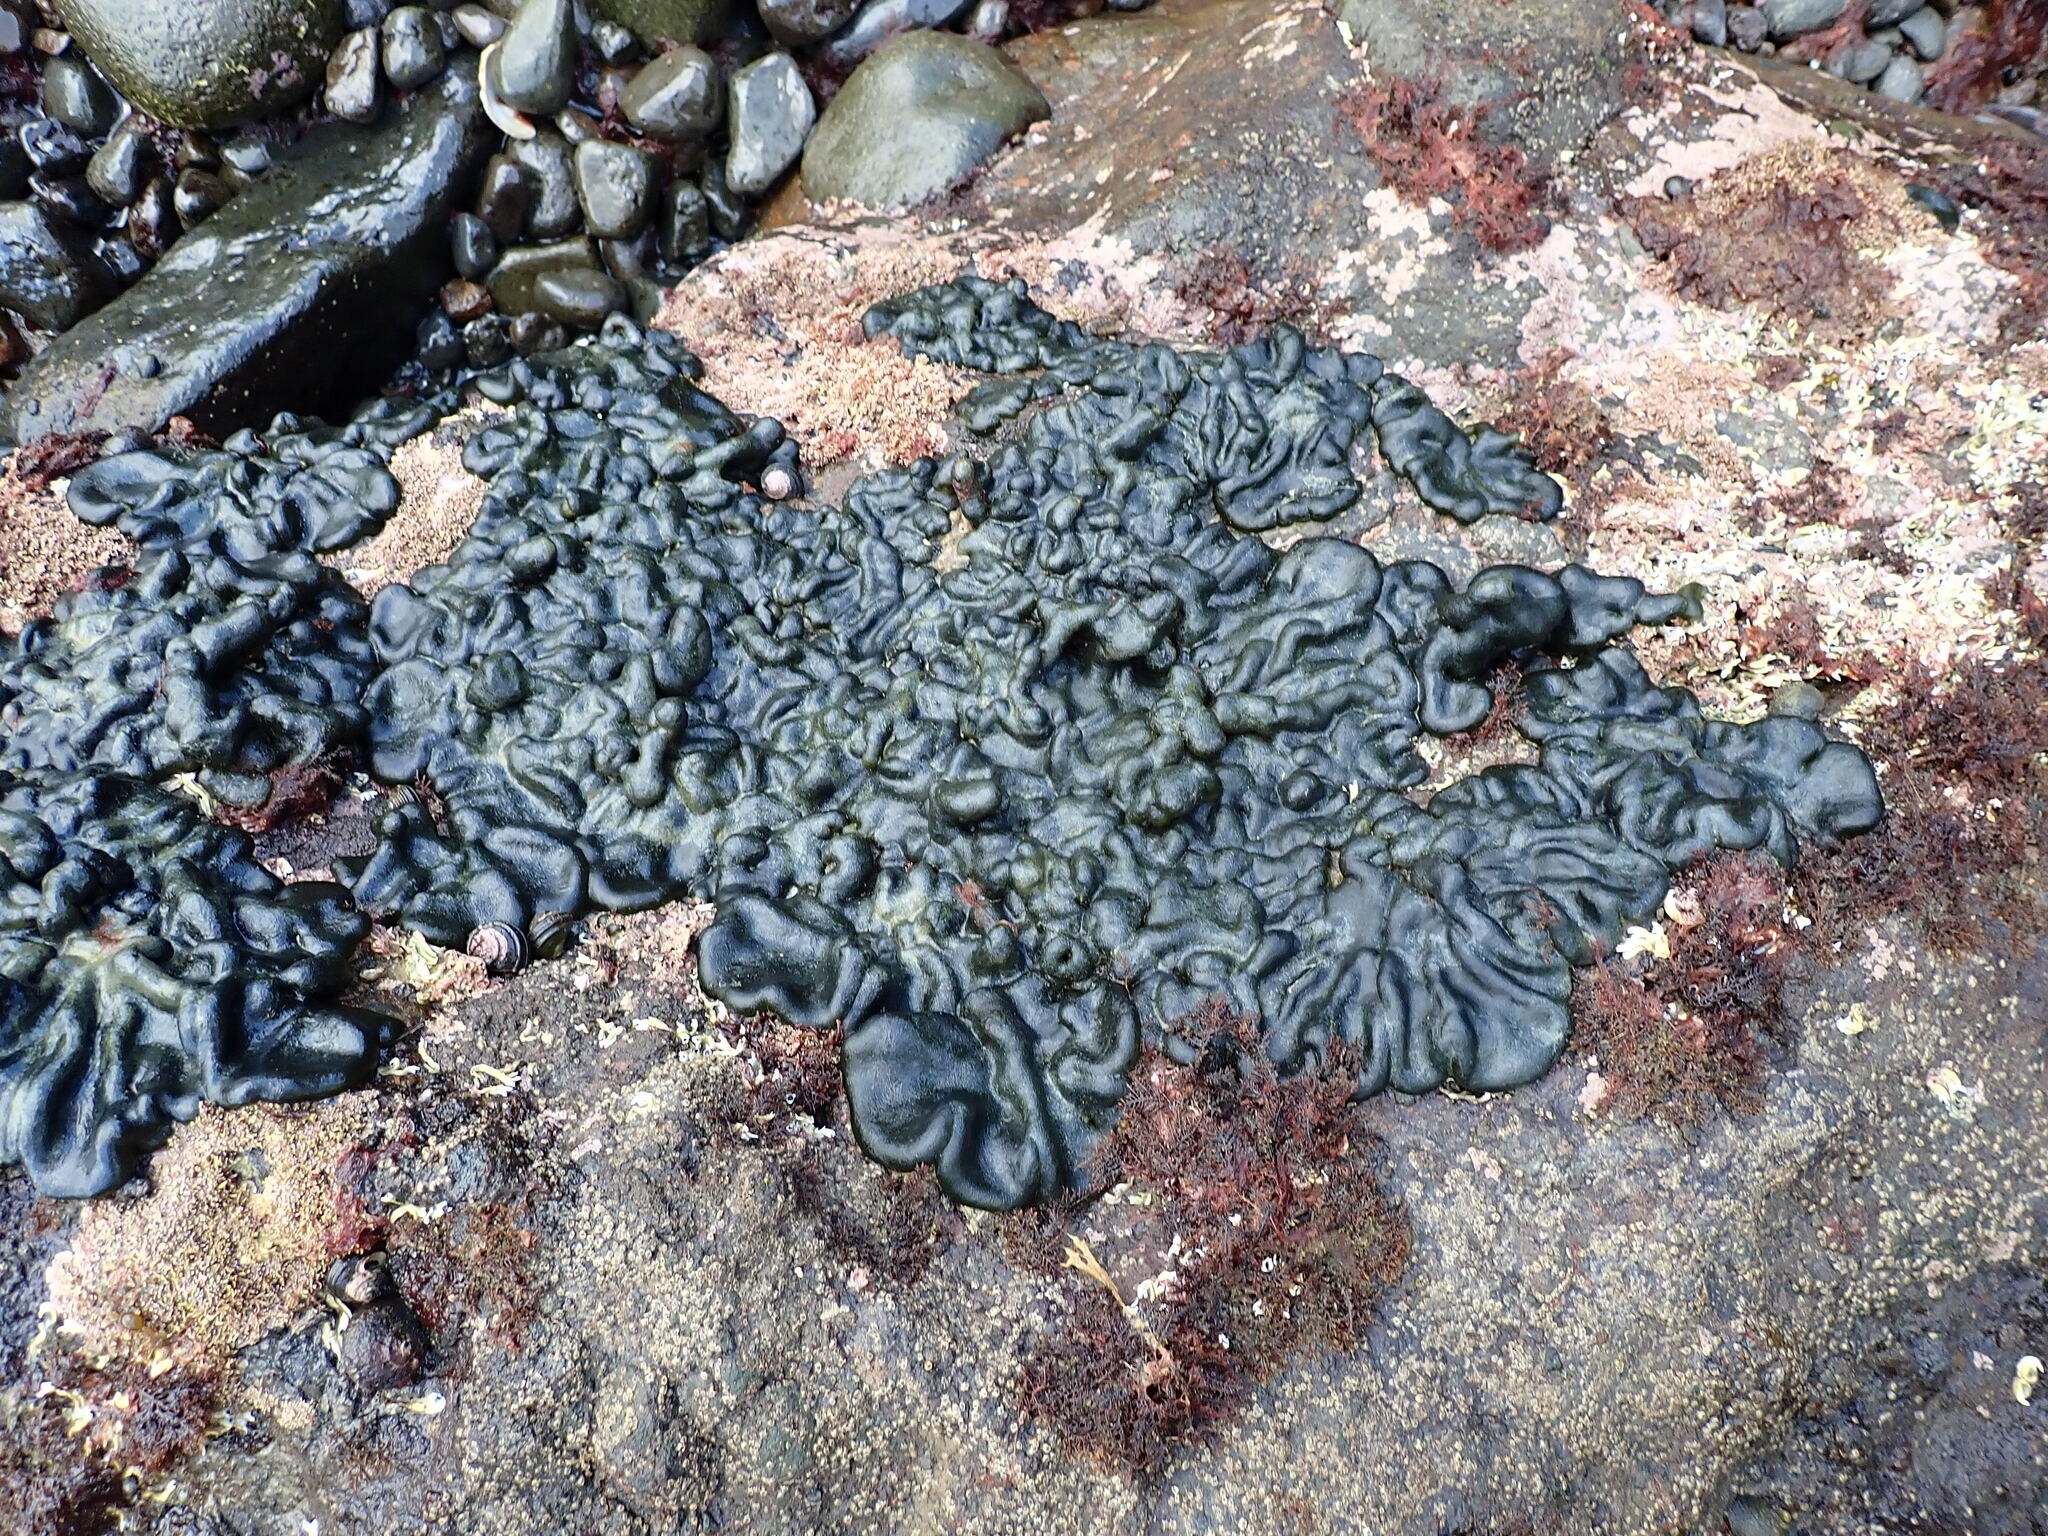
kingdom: Plantae
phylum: Chlorophyta
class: Ulvophyceae
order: Bryopsidales
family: Codiaceae
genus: Codium
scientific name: Codium convolutum
